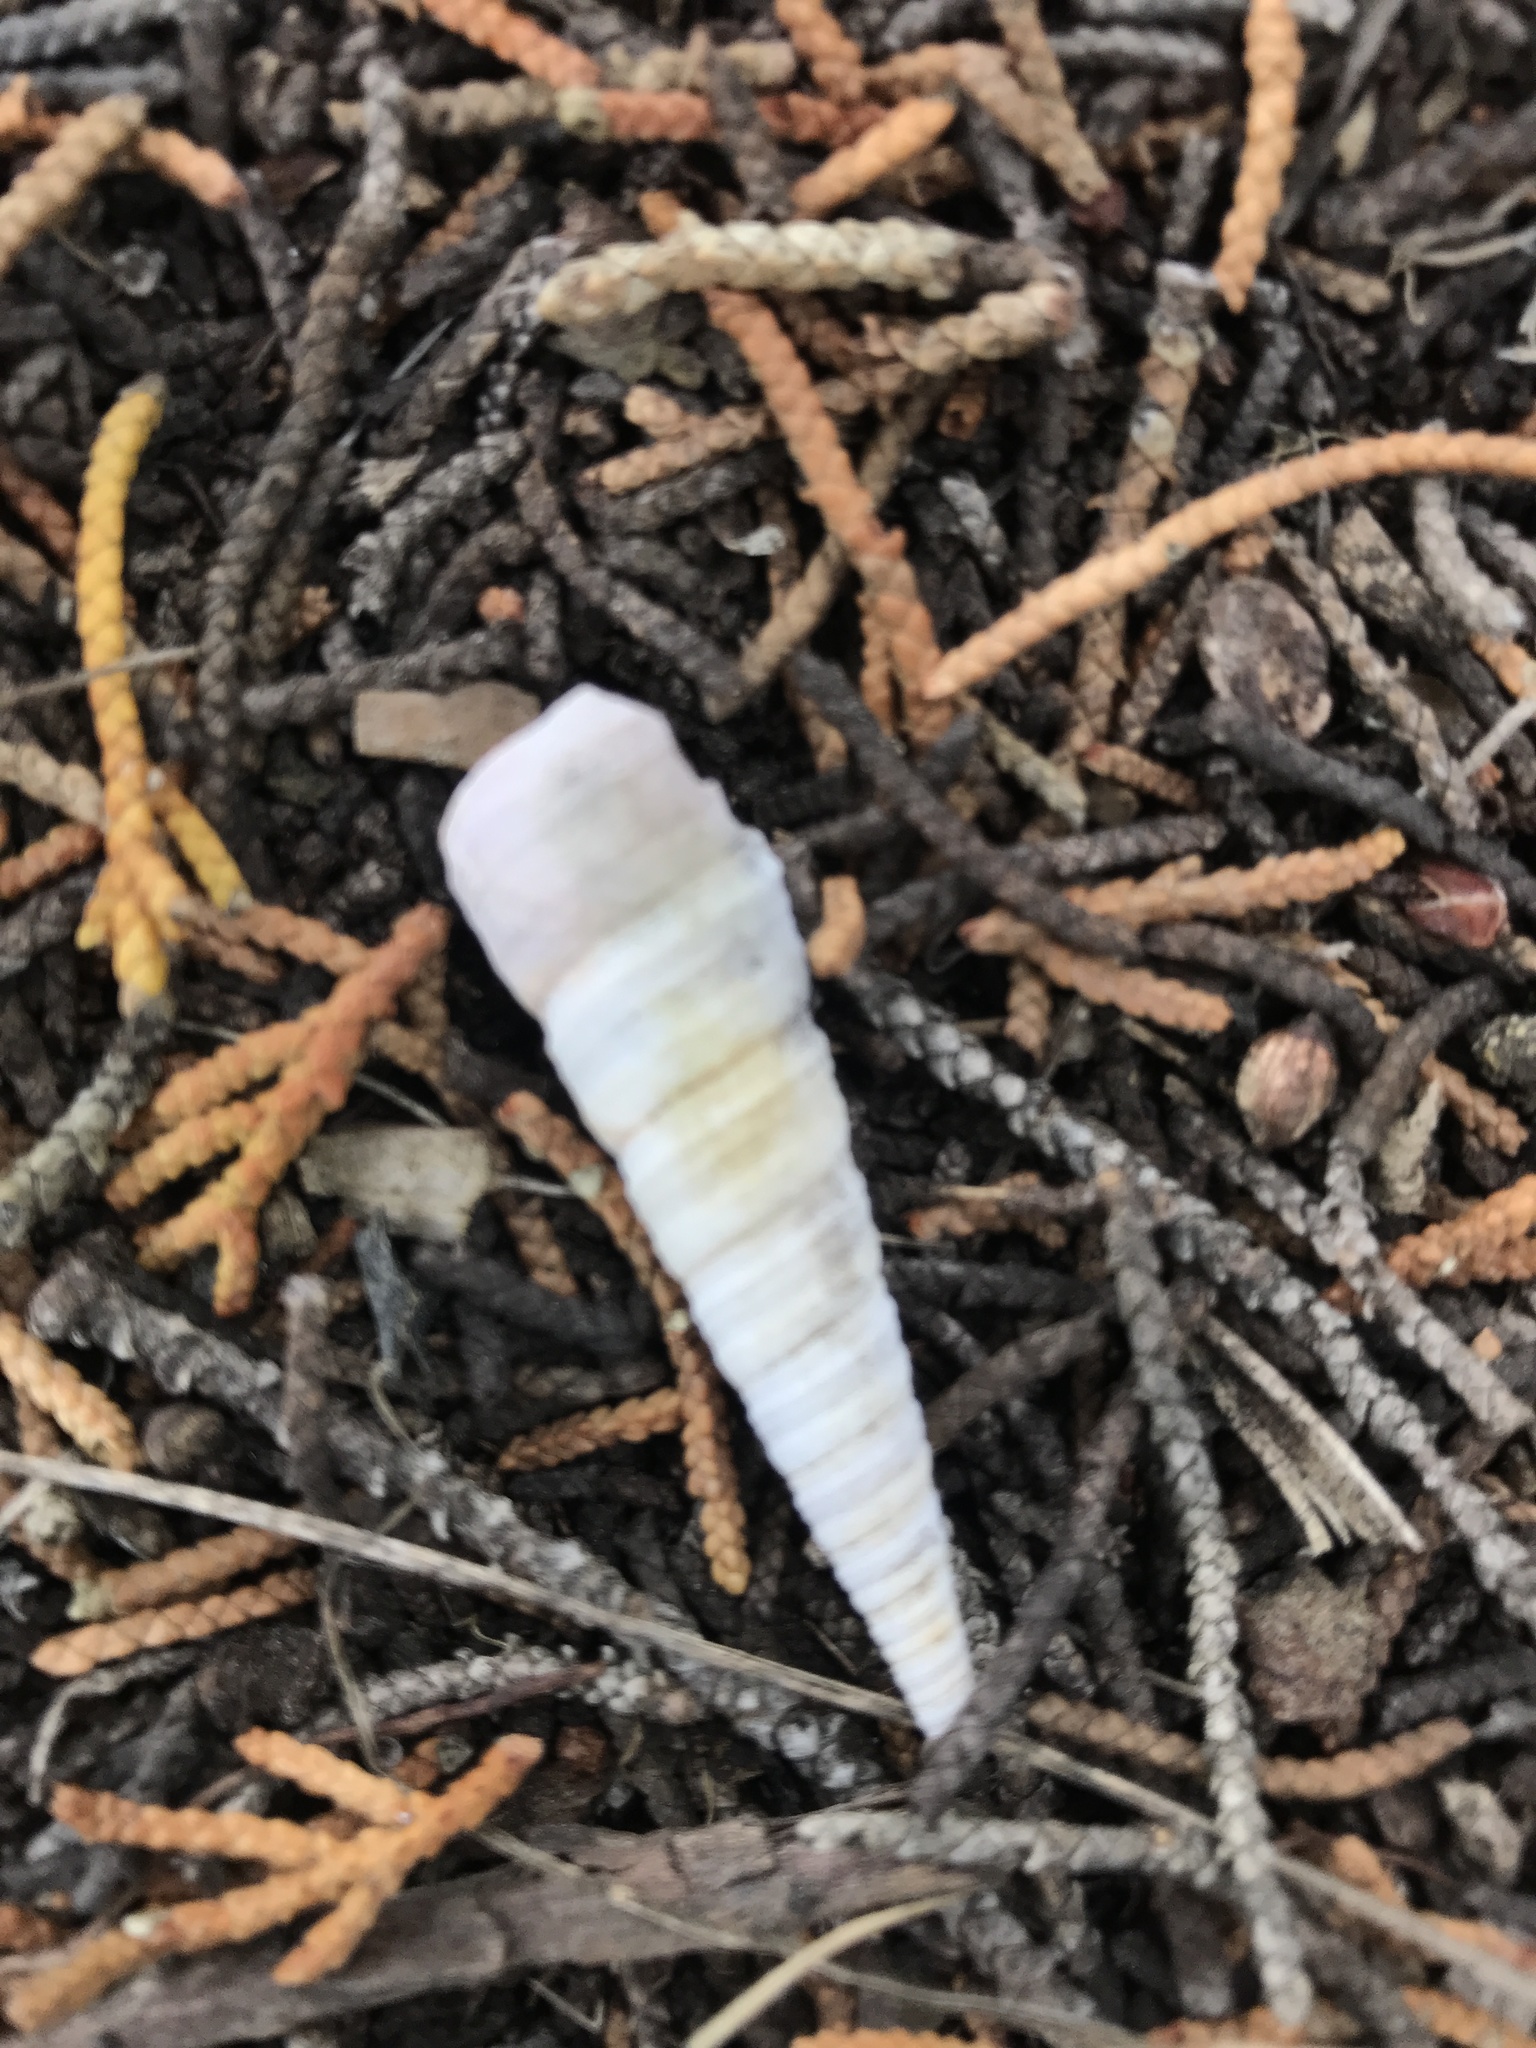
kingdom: Animalia
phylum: Mollusca
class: Gastropoda
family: Turritellidae
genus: Maoricolpus
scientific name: Maoricolpus roseus
